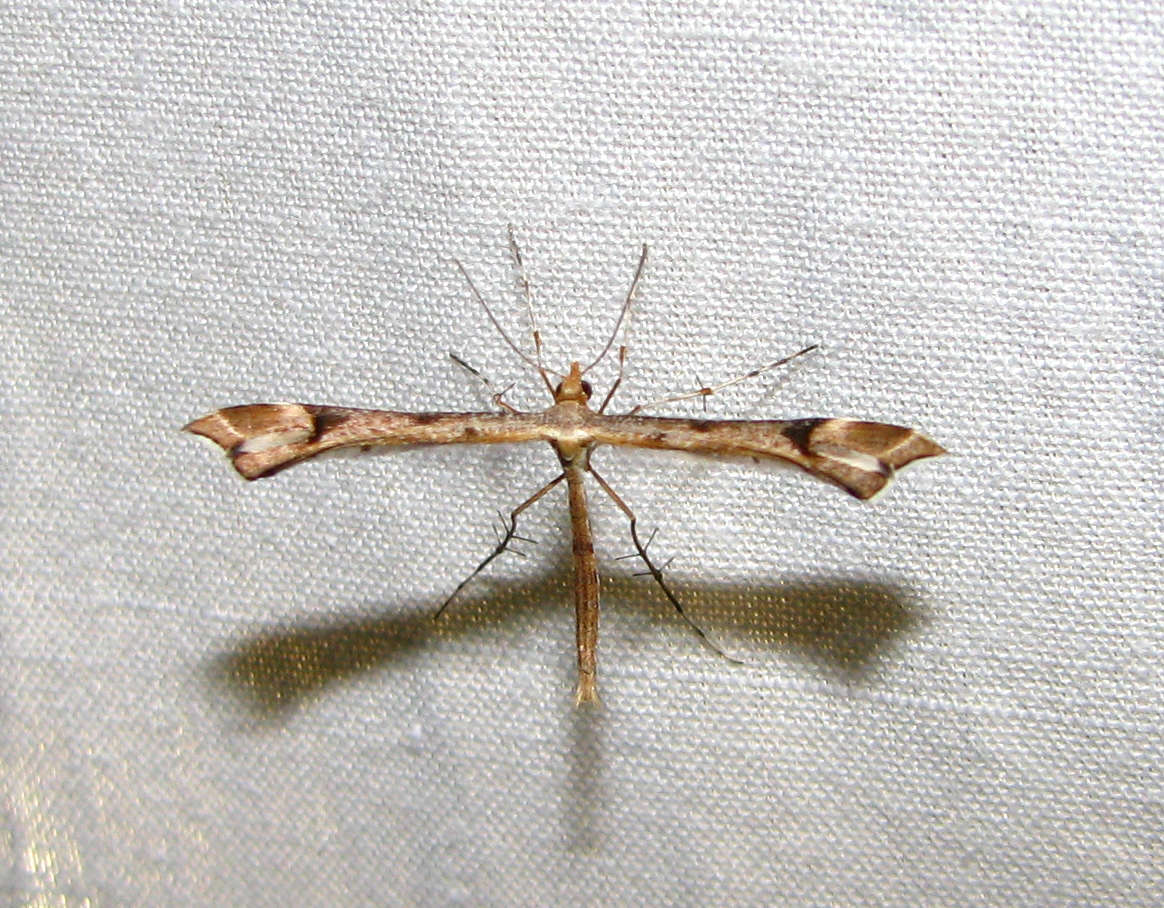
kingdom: Animalia
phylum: Arthropoda
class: Insecta
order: Lepidoptera
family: Pterophoridae
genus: Sinpunctiptilia
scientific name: Sinpunctiptilia emissalis
